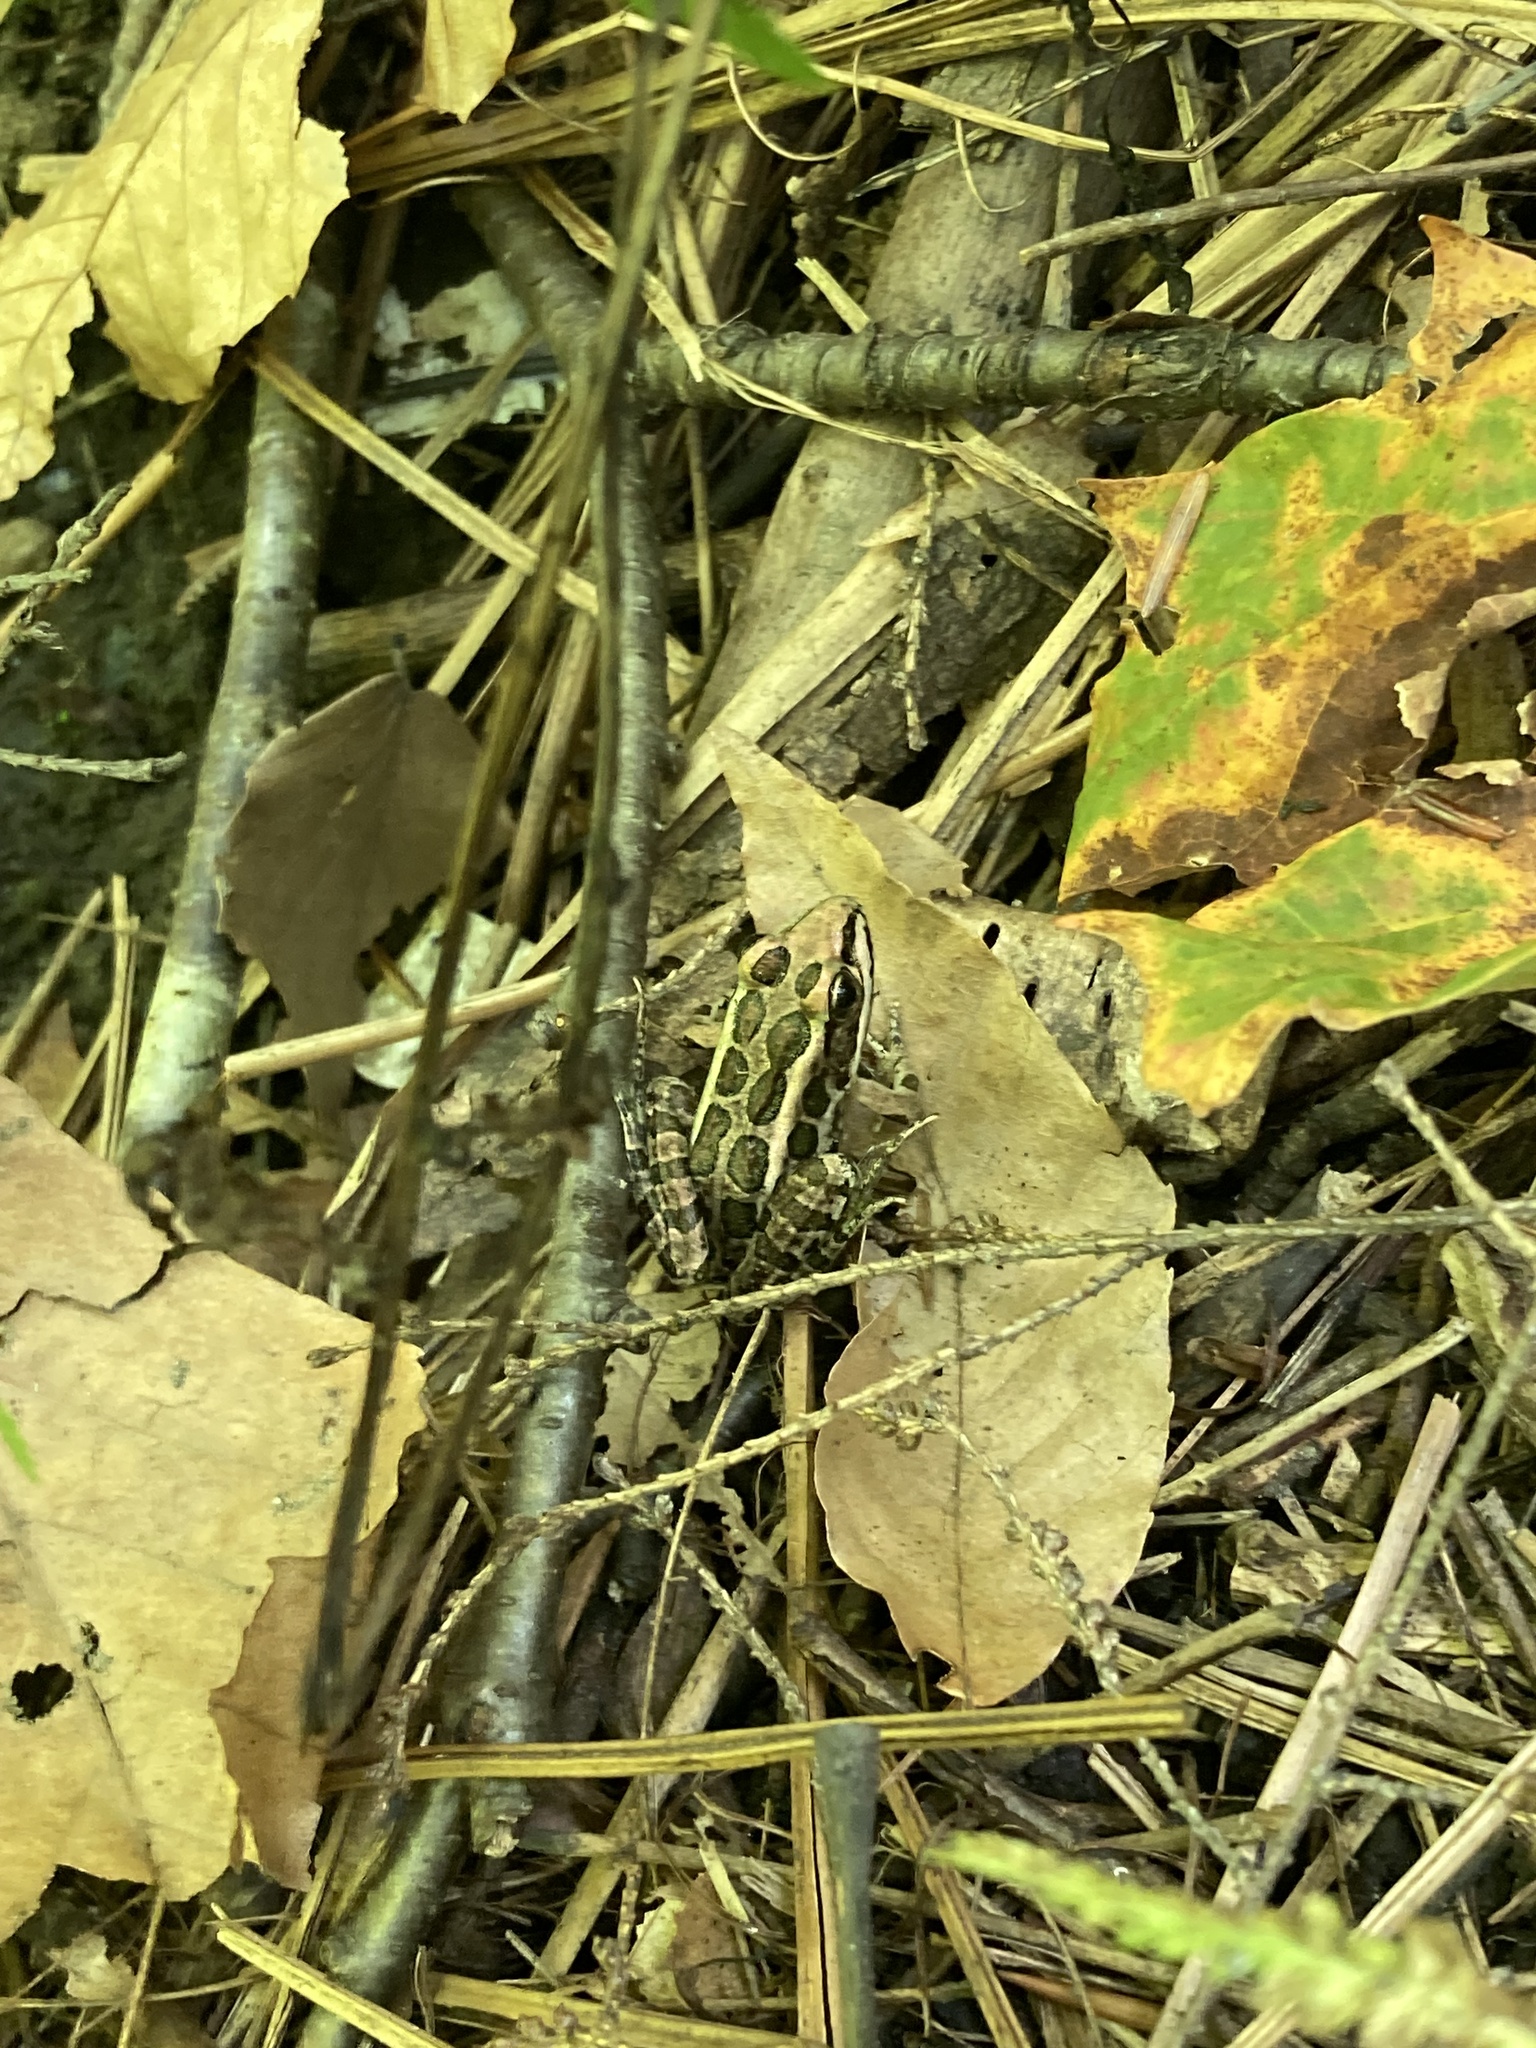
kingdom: Animalia
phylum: Chordata
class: Amphibia
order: Anura
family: Ranidae
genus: Lithobates
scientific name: Lithobates palustris
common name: Pickerel frog
